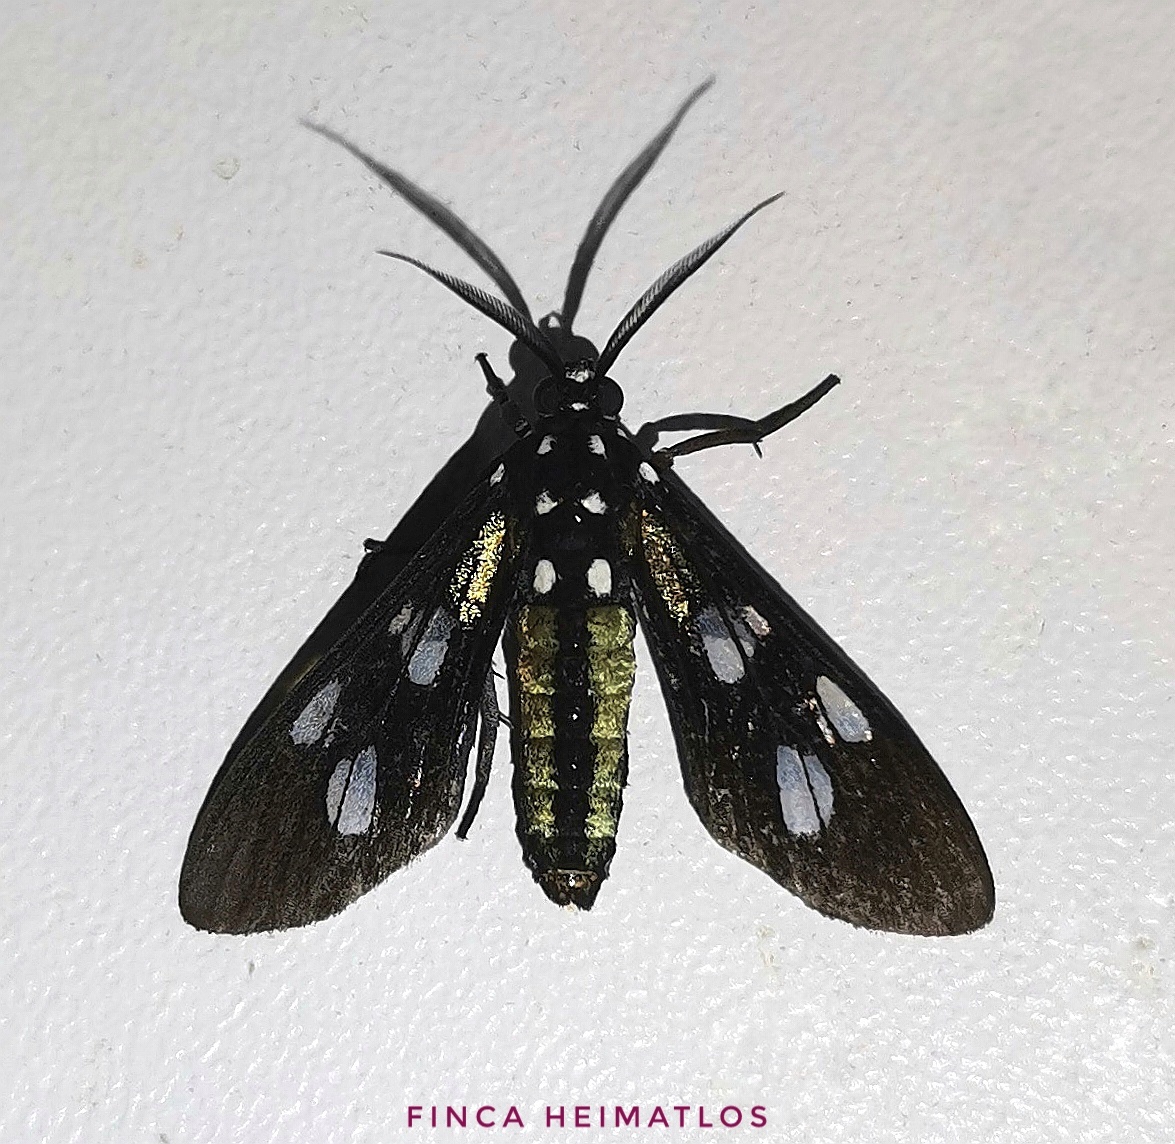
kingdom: Animalia
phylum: Arthropoda
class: Insecta
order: Lepidoptera
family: Erebidae
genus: Leucopleura
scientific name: Leucopleura viridis
